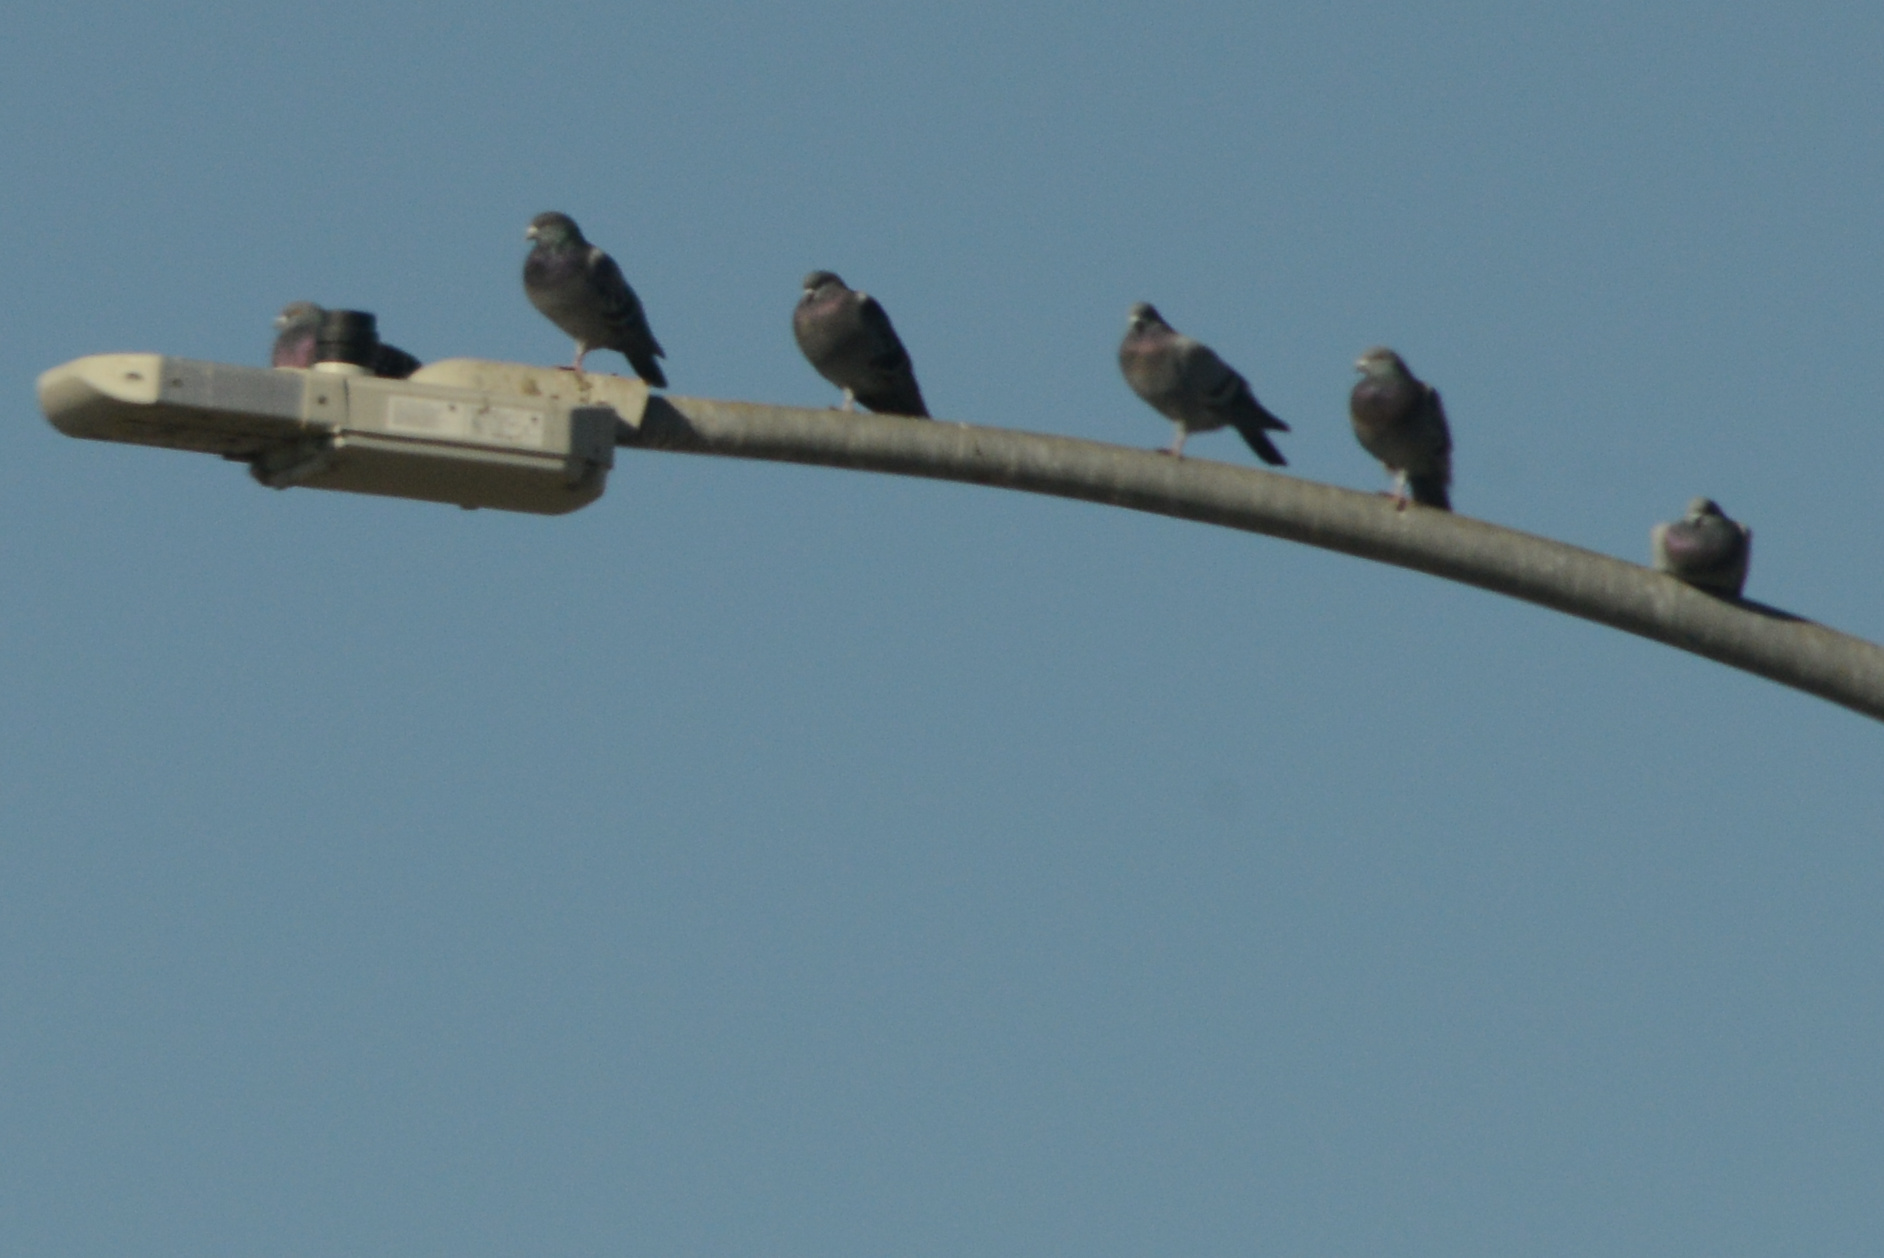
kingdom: Animalia
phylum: Chordata
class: Aves
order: Columbiformes
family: Columbidae
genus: Columba
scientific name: Columba livia
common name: Rock pigeon
